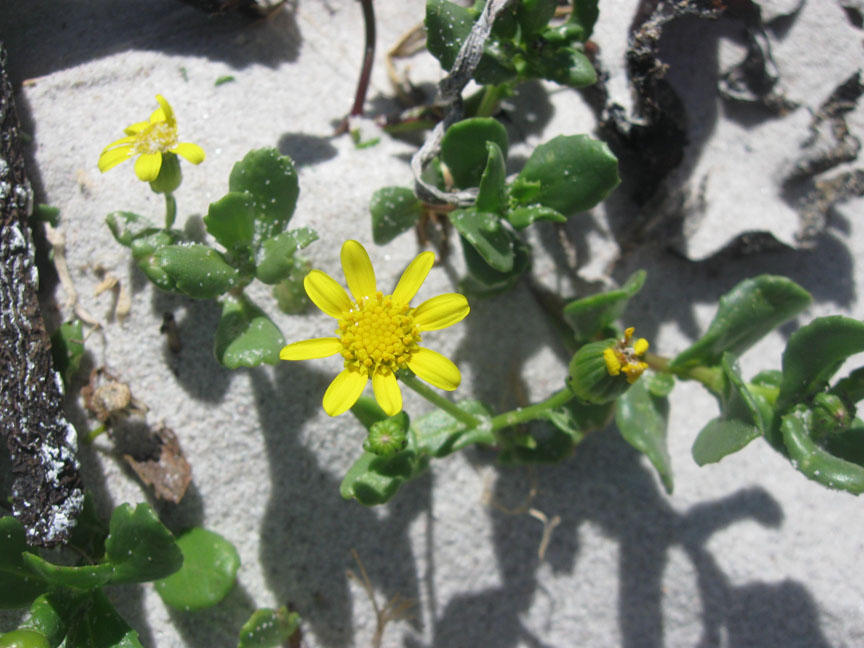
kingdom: Plantae
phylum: Tracheophyta
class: Magnoliopsida
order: Asterales
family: Asteraceae
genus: Senecio
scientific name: Senecio maritimus
